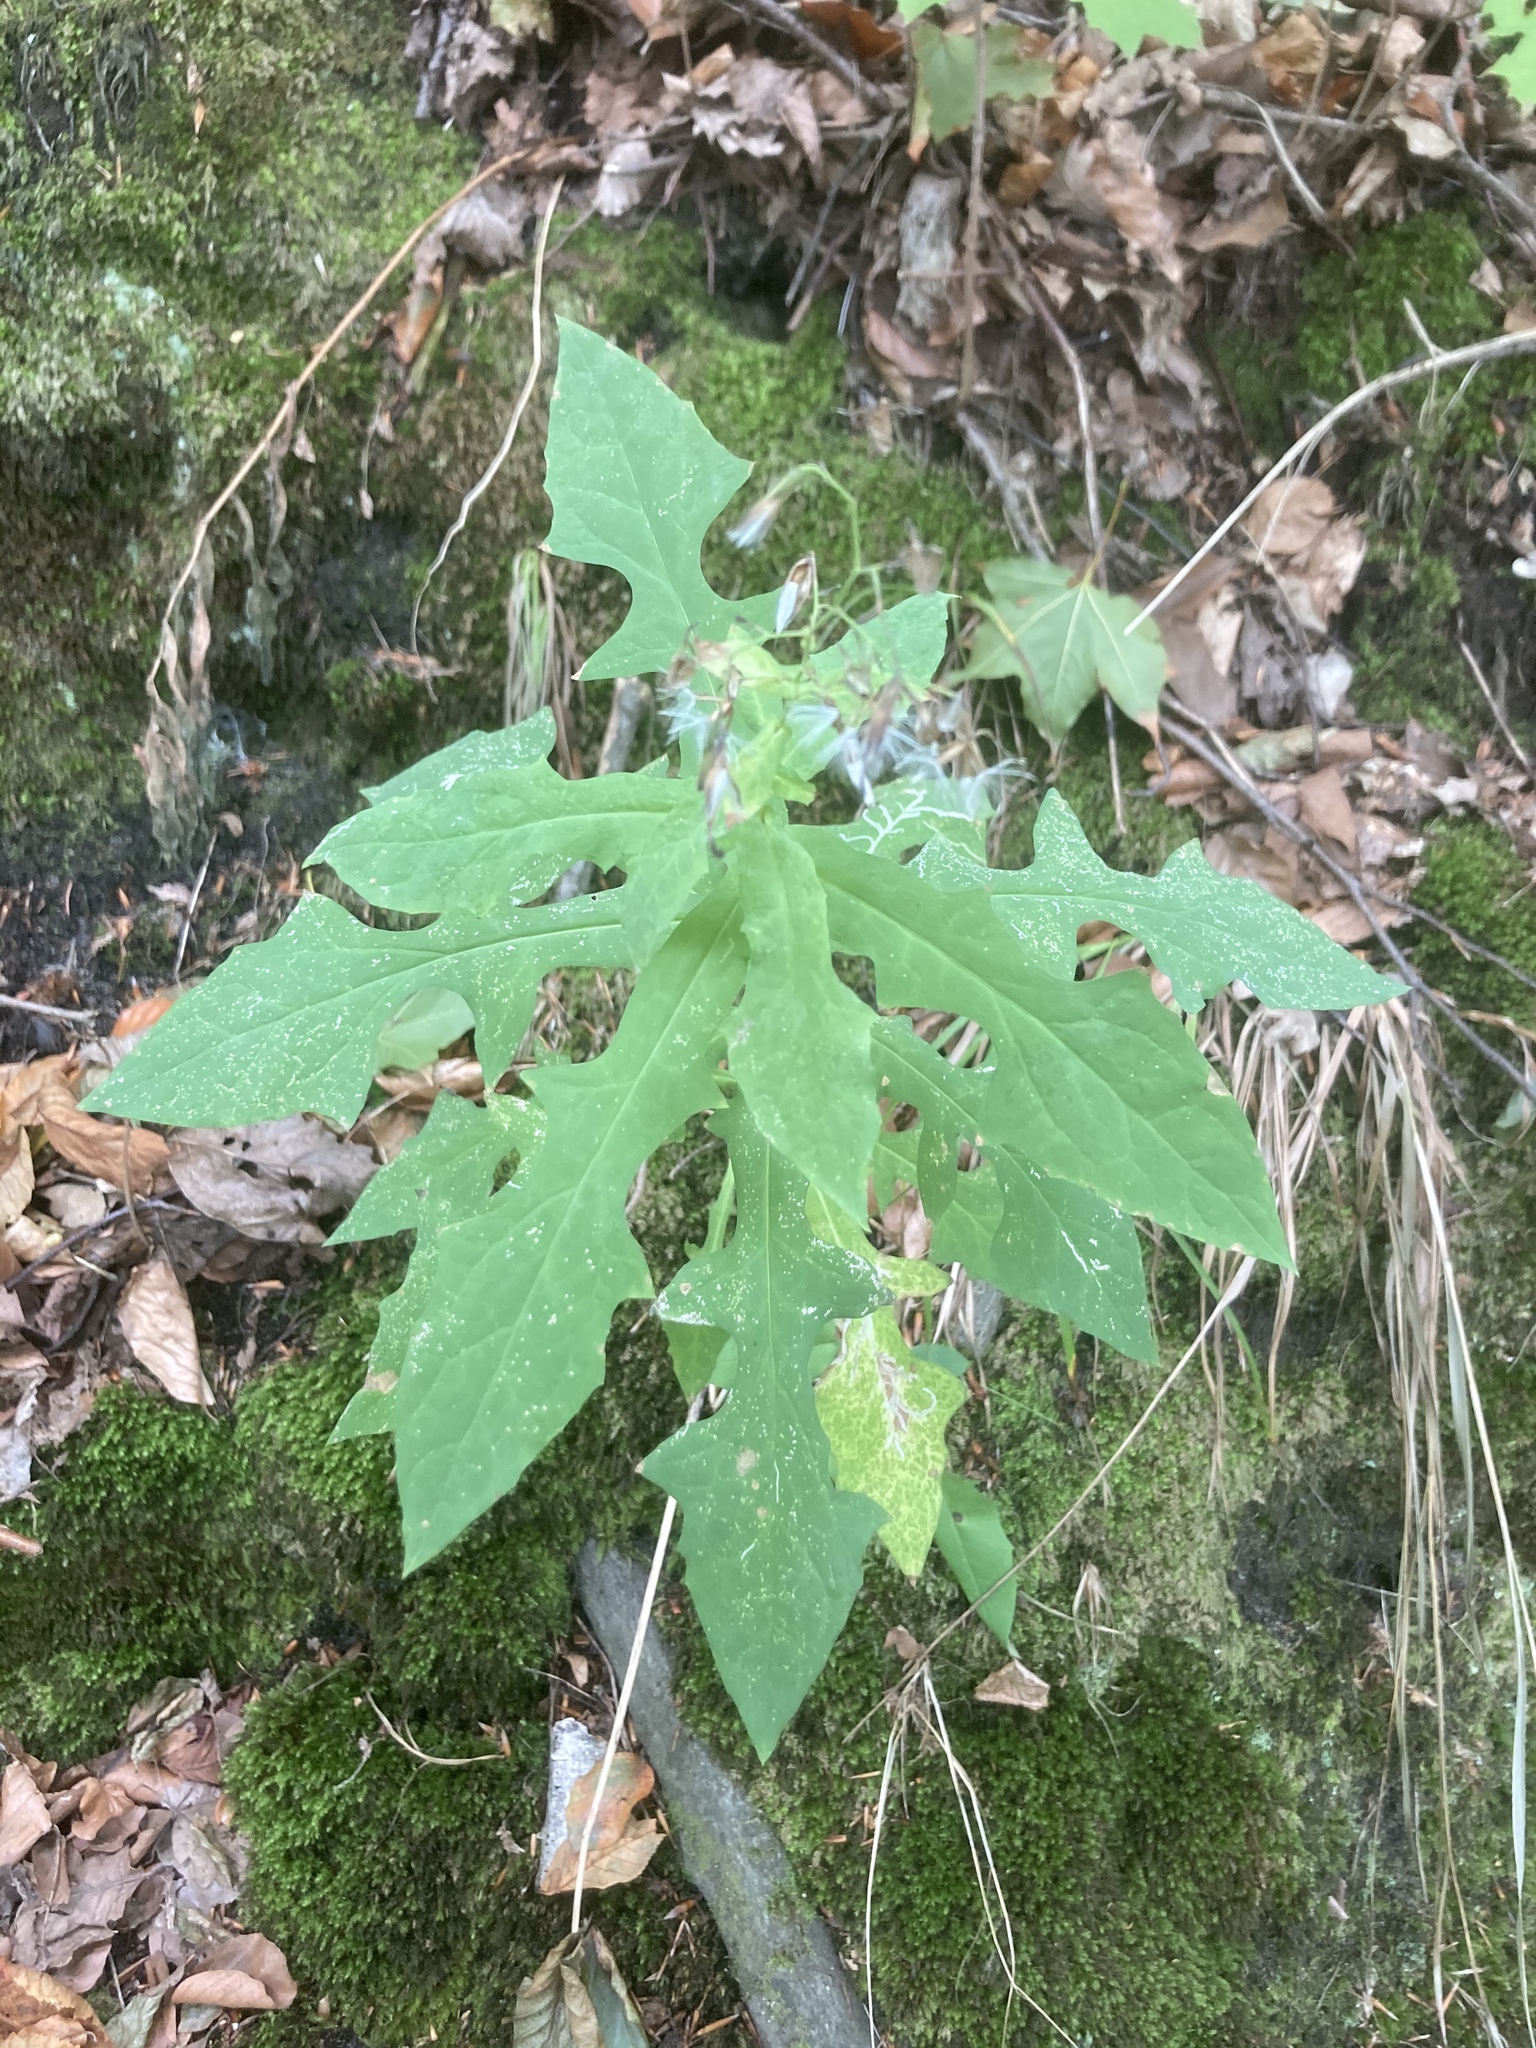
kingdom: Plantae
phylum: Tracheophyta
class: Magnoliopsida
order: Asterales
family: Asteraceae
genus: Prenanthes
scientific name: Prenanthes purpurea
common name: Purple lettuce
